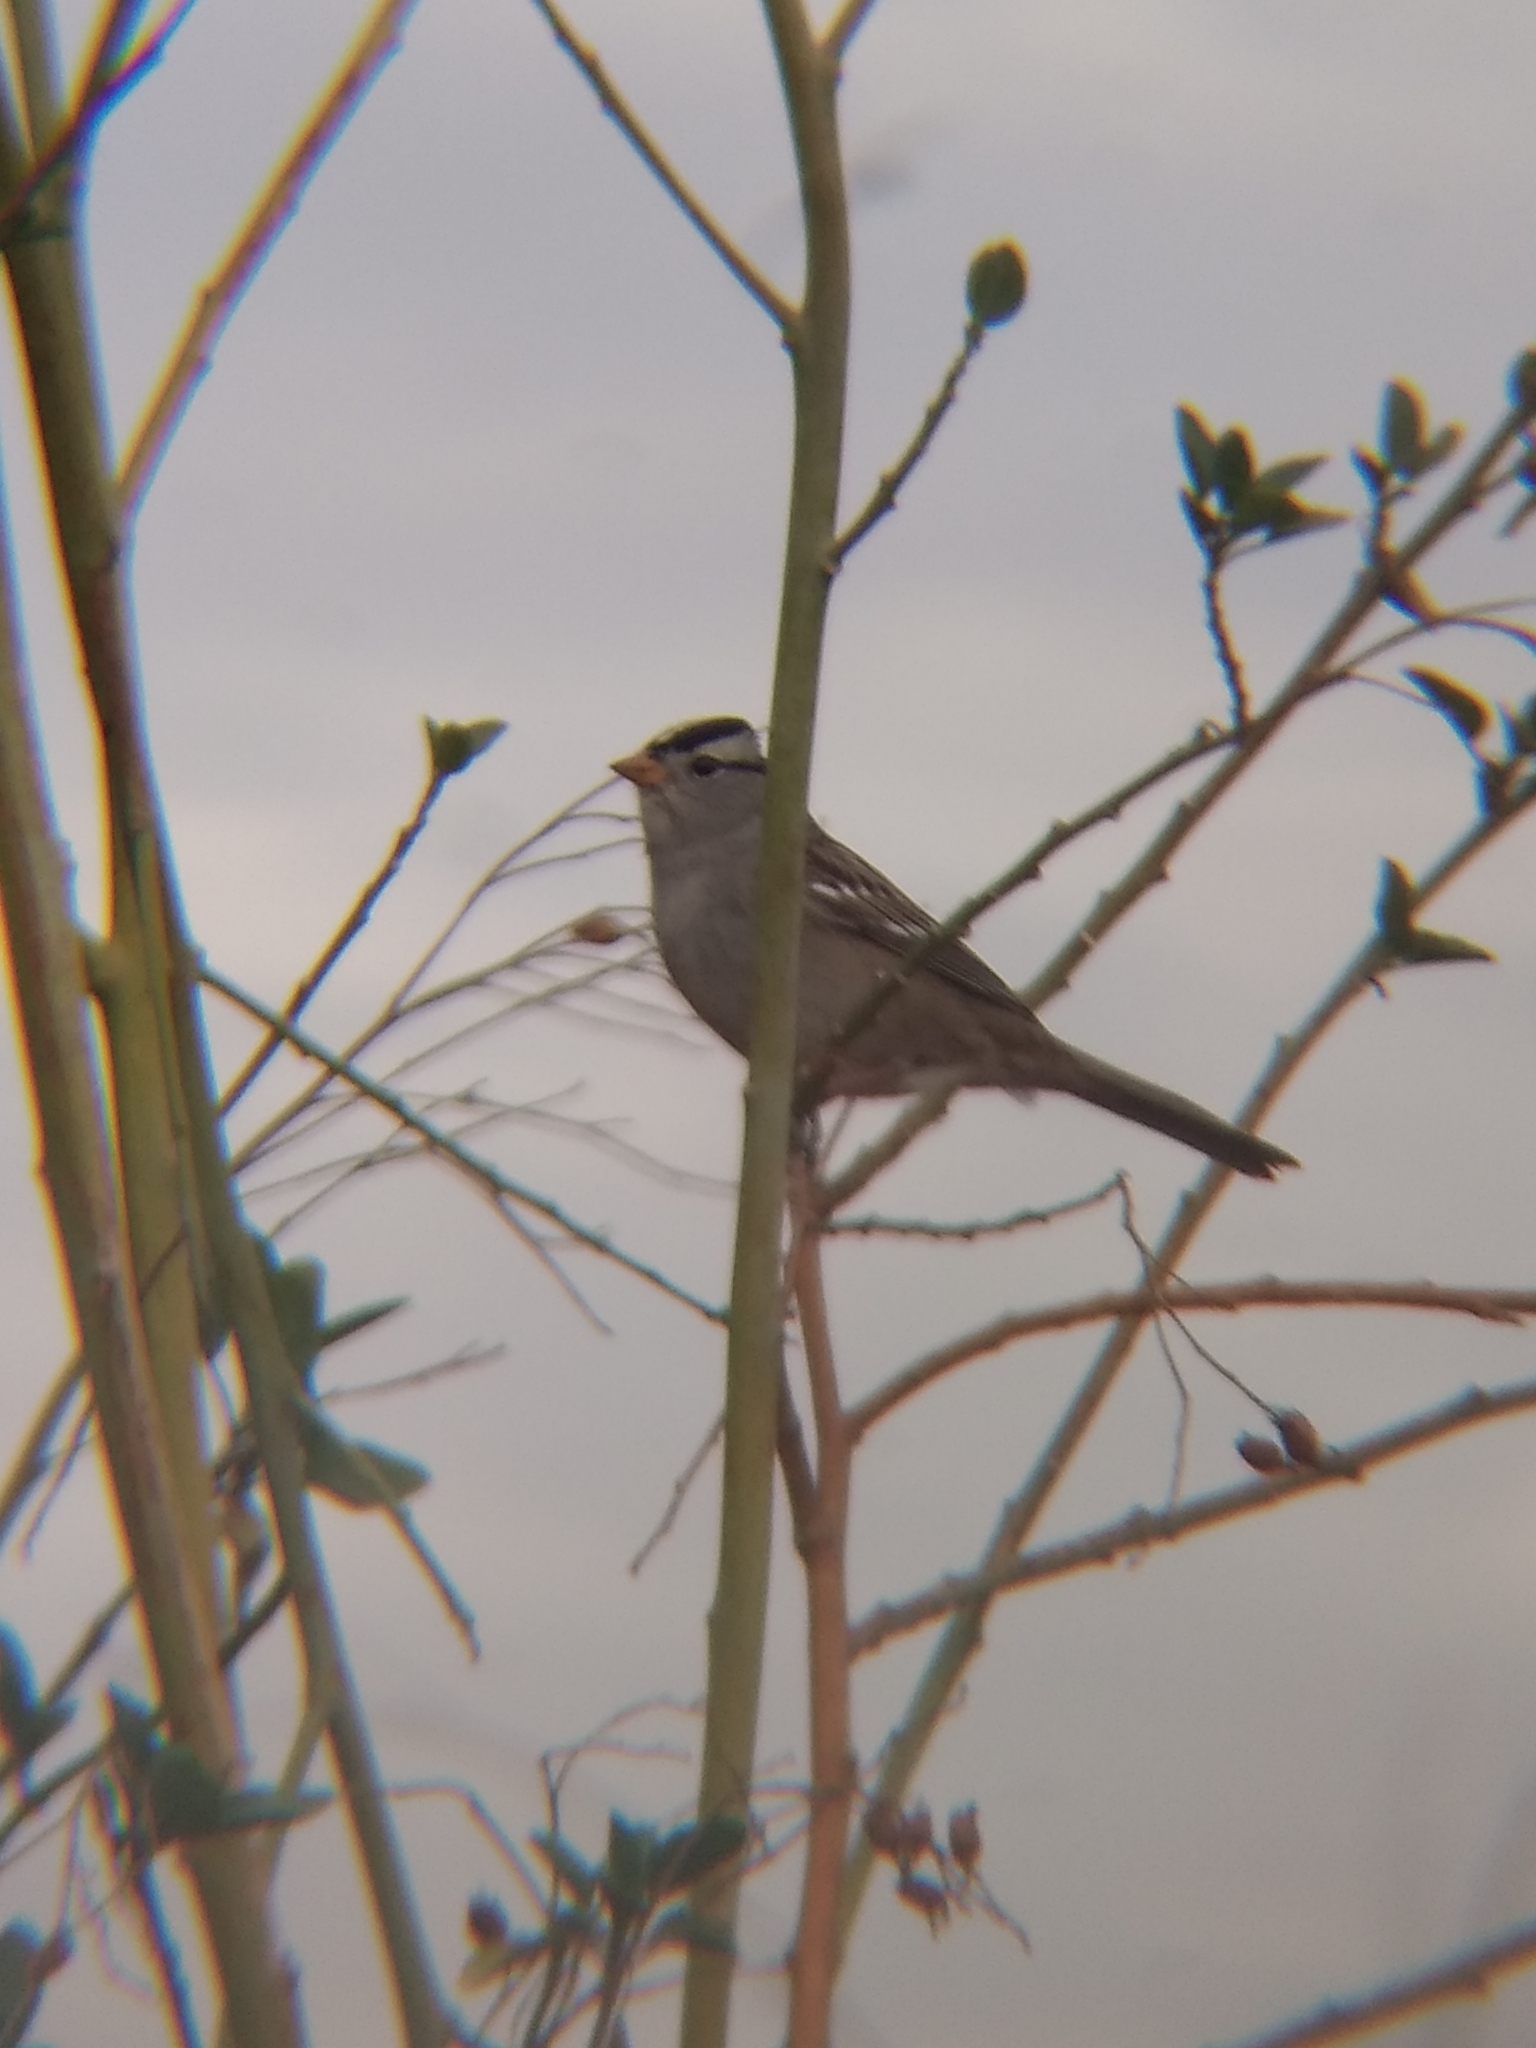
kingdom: Animalia
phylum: Chordata
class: Aves
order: Passeriformes
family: Passerellidae
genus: Zonotrichia
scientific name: Zonotrichia leucophrys
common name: White-crowned sparrow
